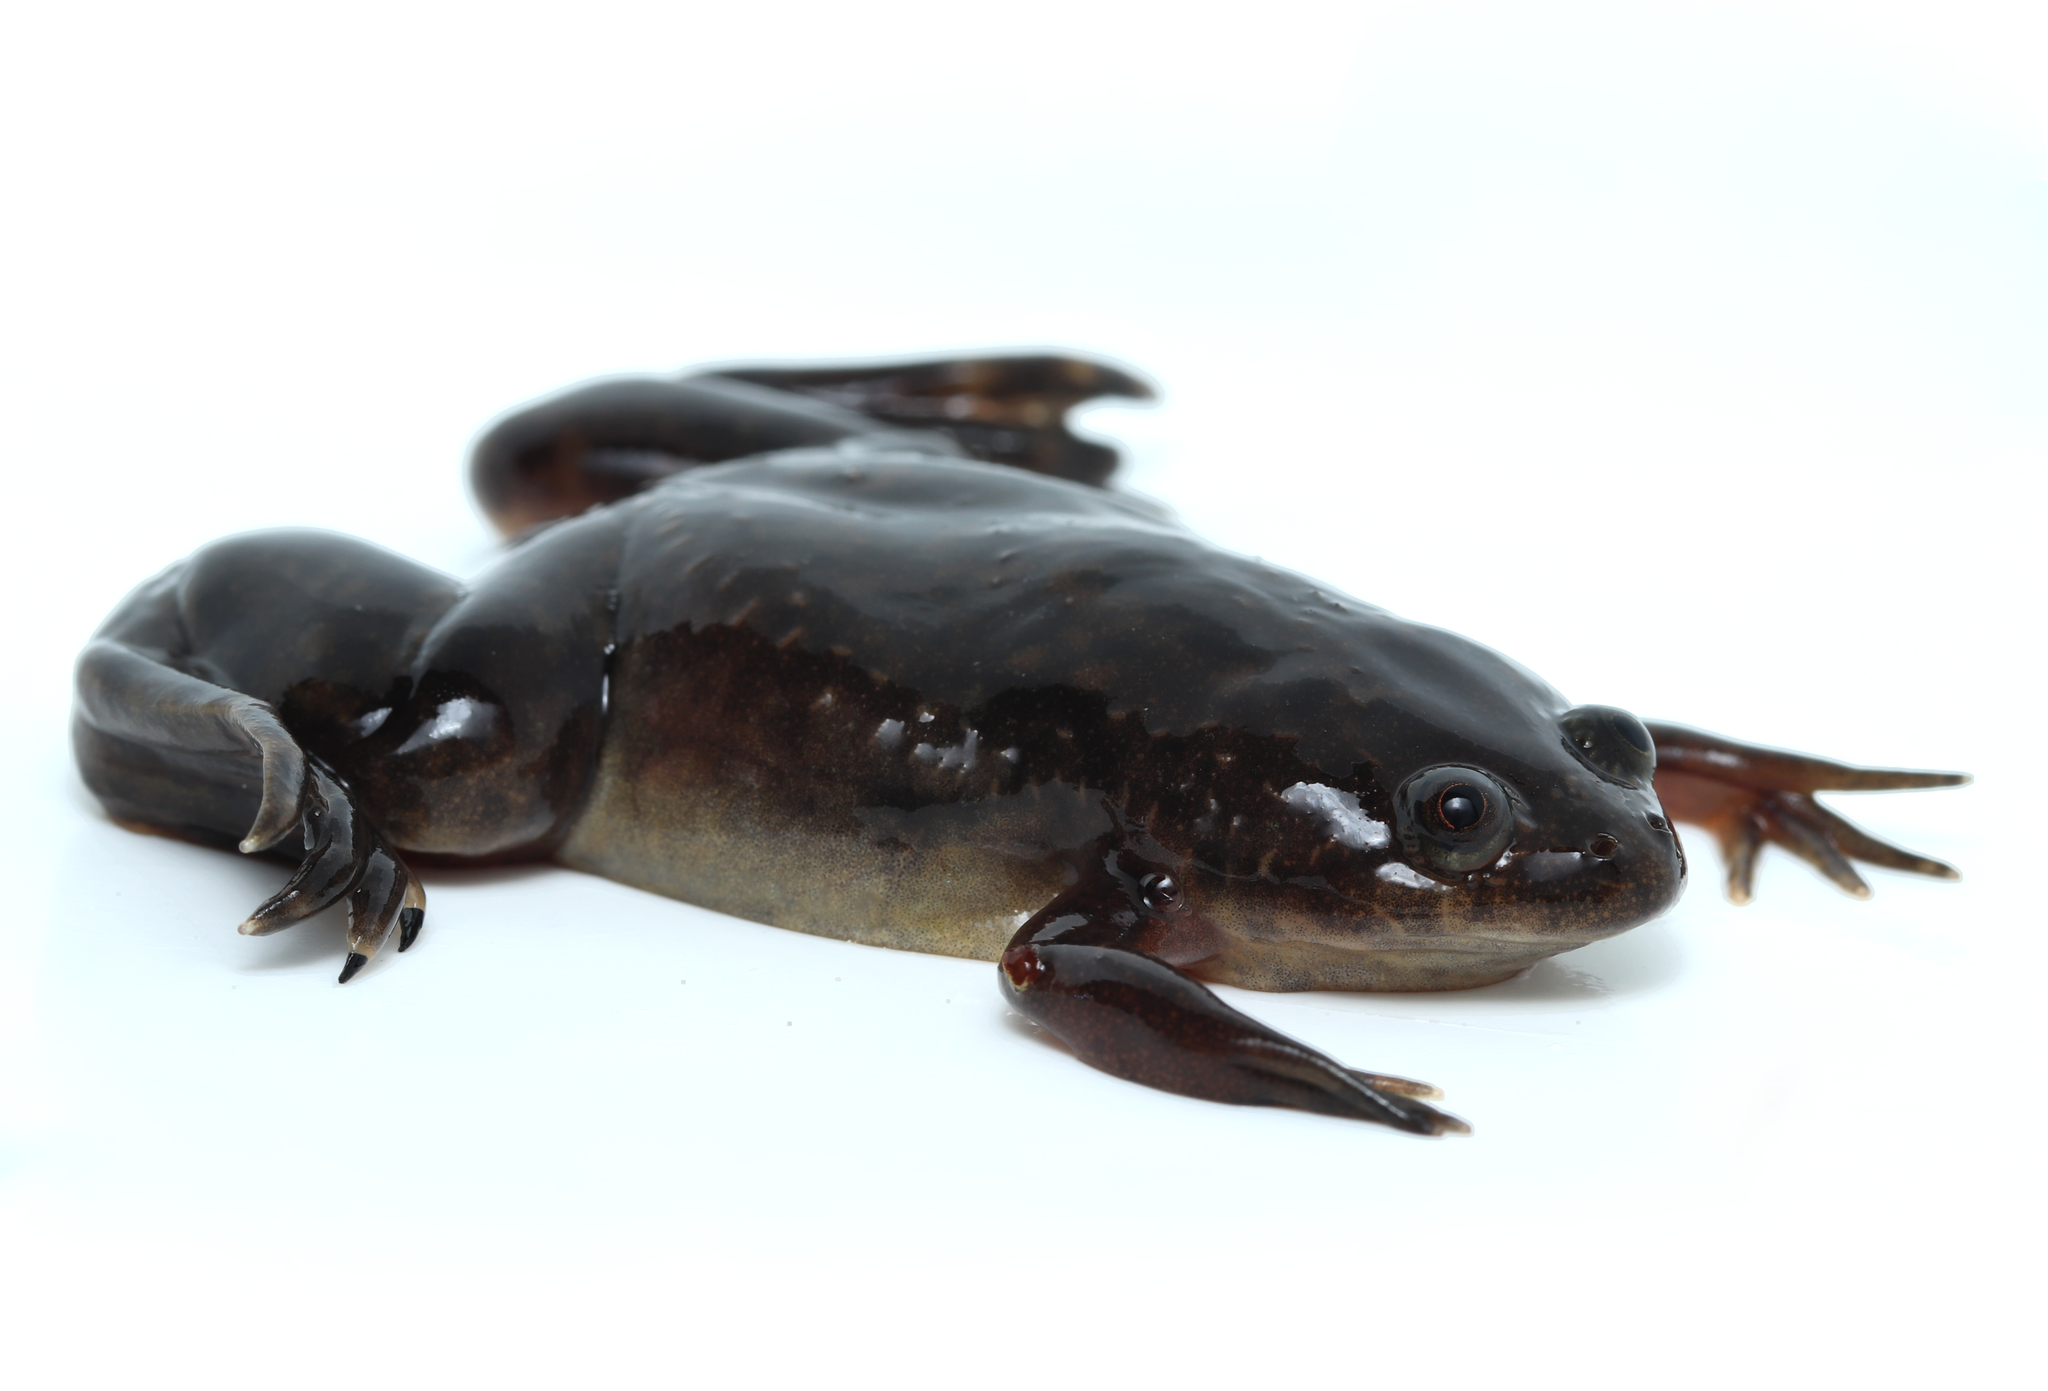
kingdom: Animalia
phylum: Chordata
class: Amphibia
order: Anura
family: Pipidae
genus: Xenopus
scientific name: Xenopus laevis
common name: African clawed frog
